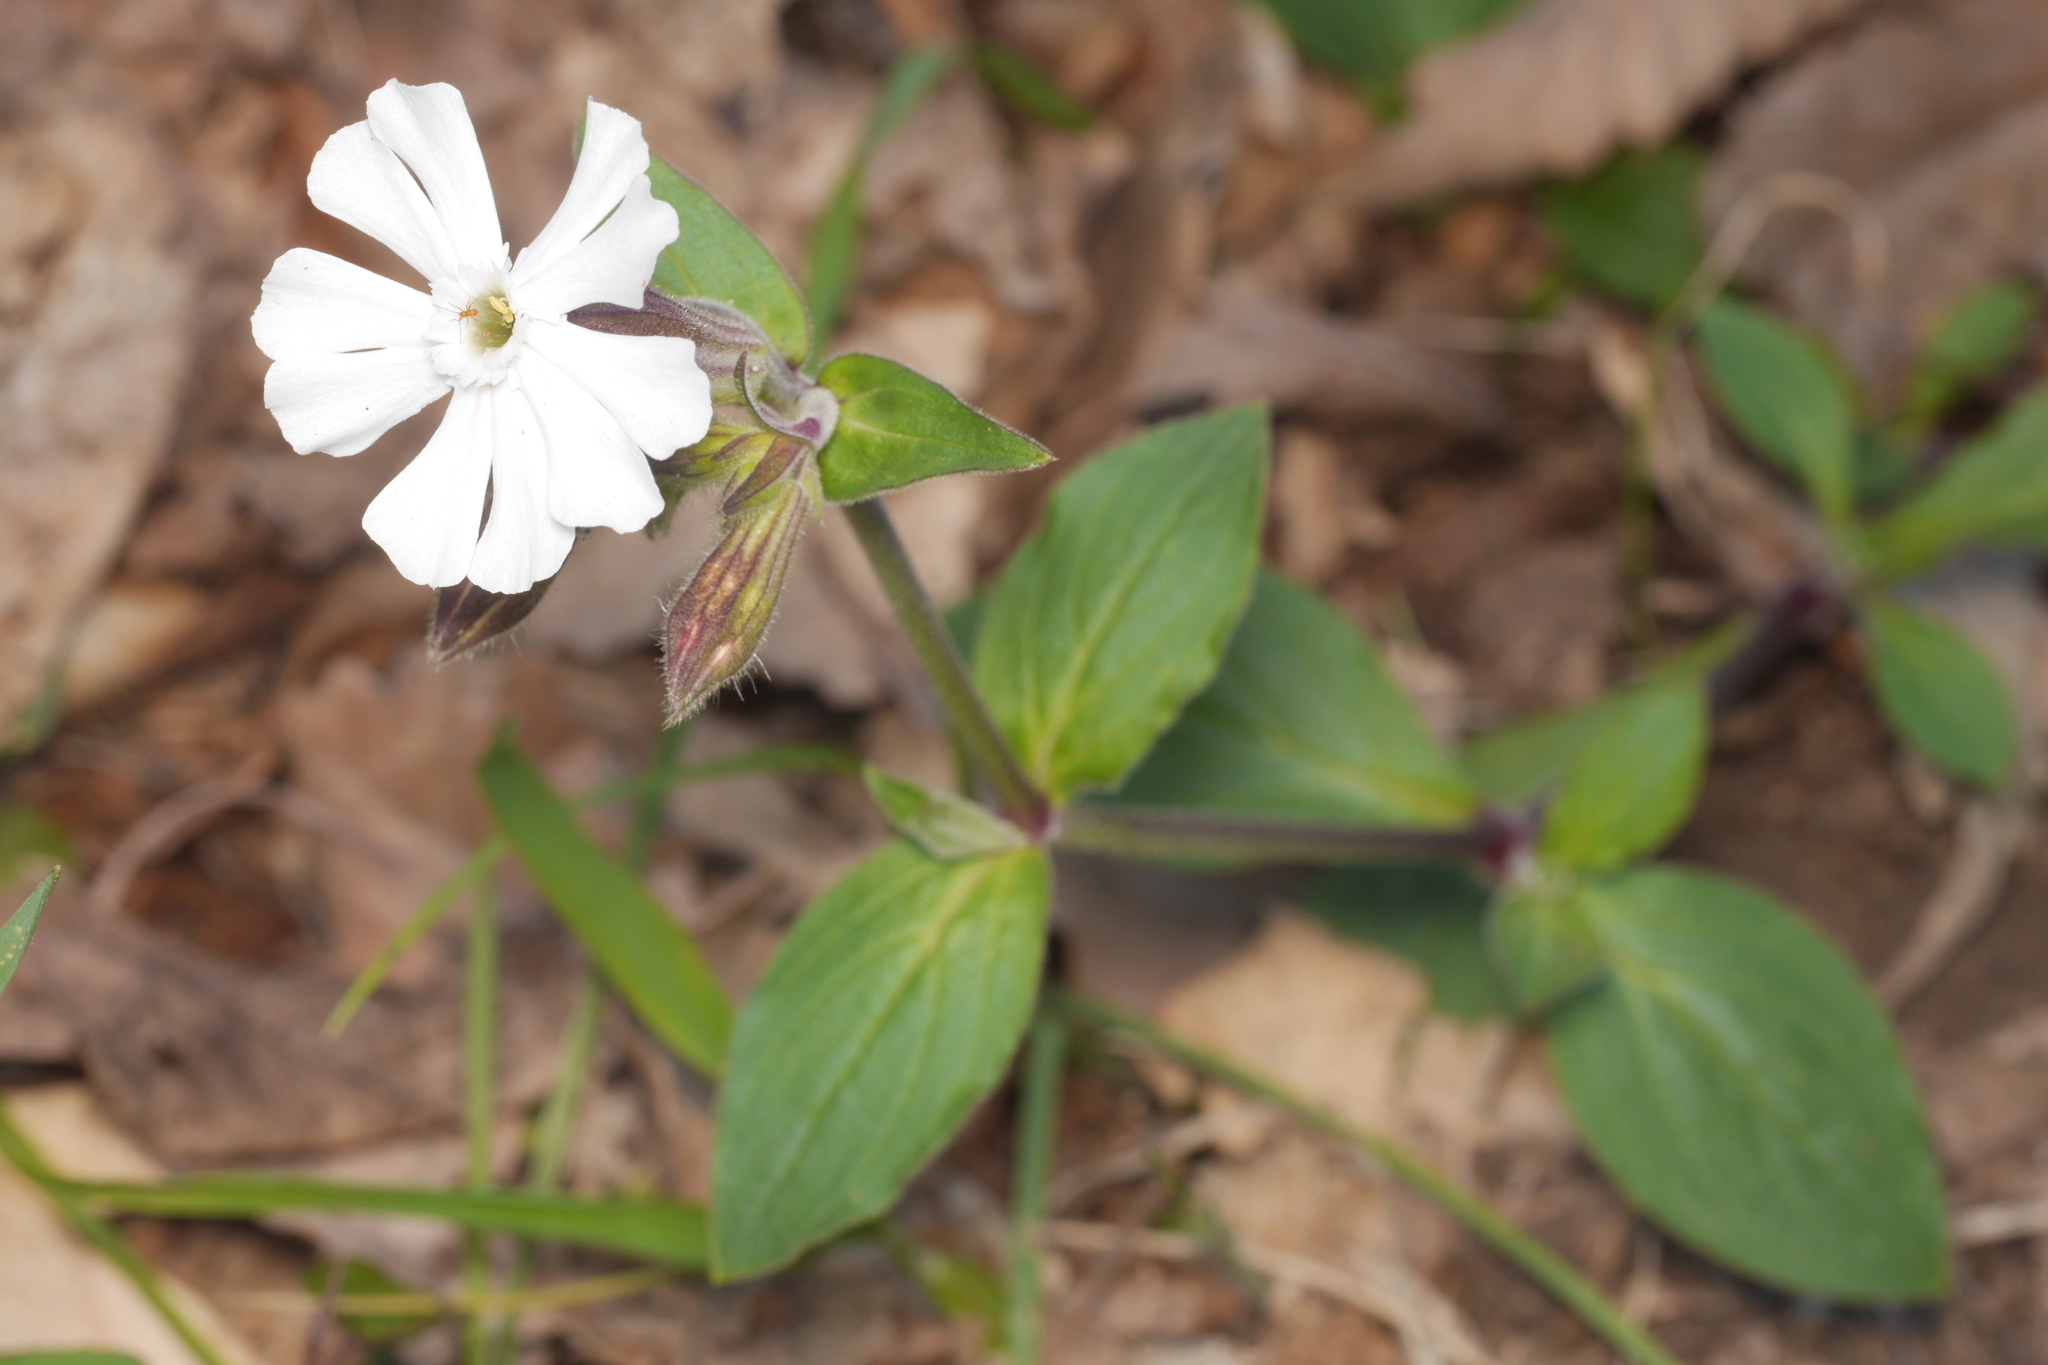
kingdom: Plantae
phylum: Tracheophyta
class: Magnoliopsida
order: Caryophyllales
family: Caryophyllaceae
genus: Silene
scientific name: Silene latifolia
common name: White campion
